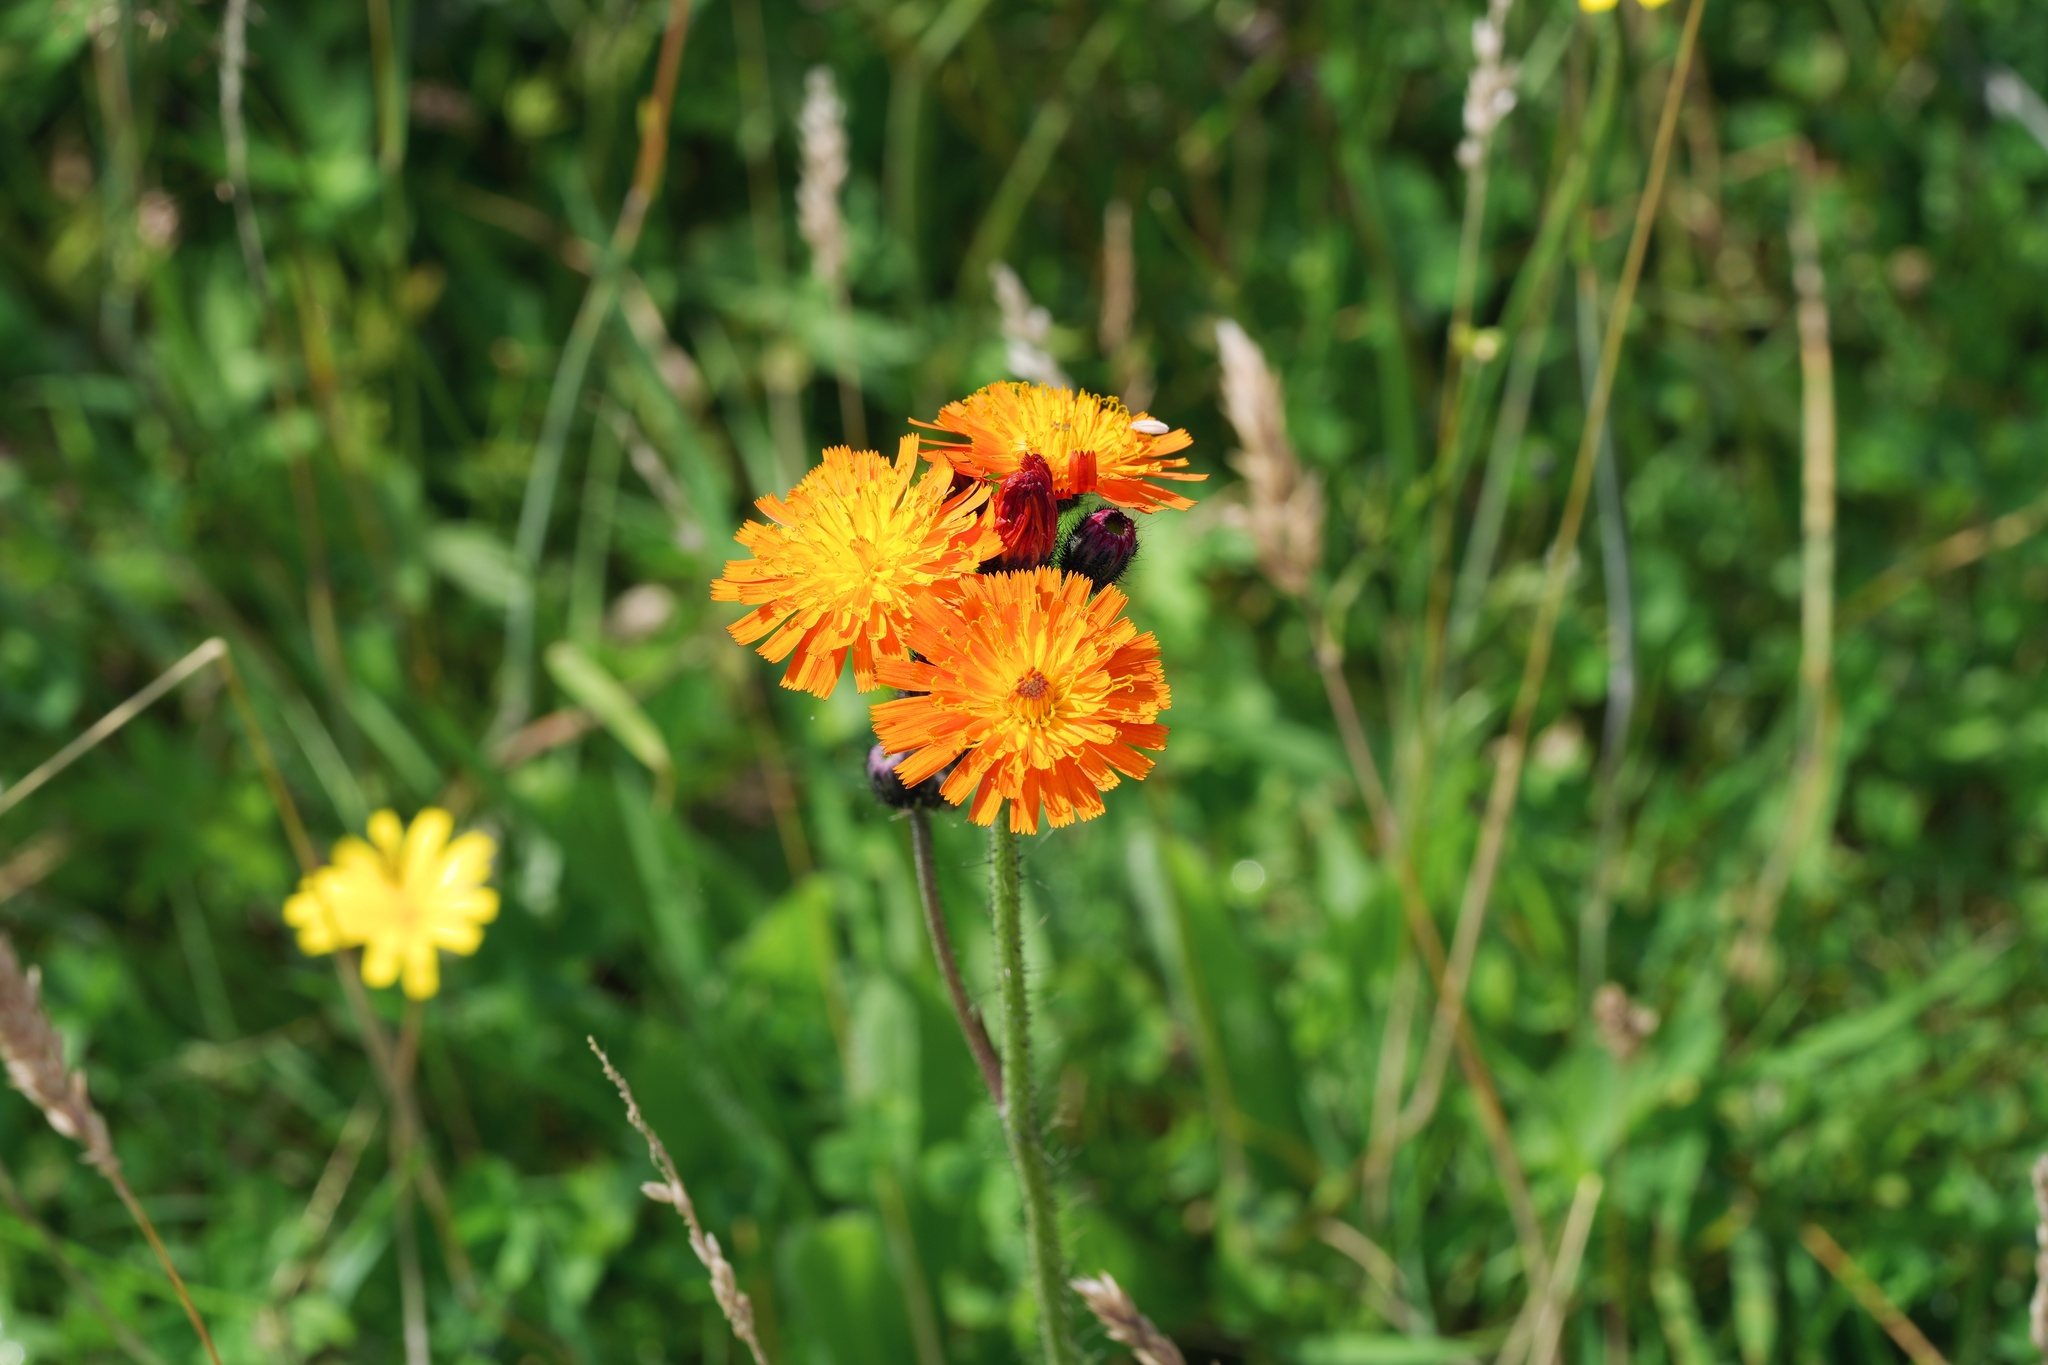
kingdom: Plantae
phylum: Tracheophyta
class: Magnoliopsida
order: Asterales
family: Asteraceae
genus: Pilosella
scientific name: Pilosella aurantiaca
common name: Fox-and-cubs
